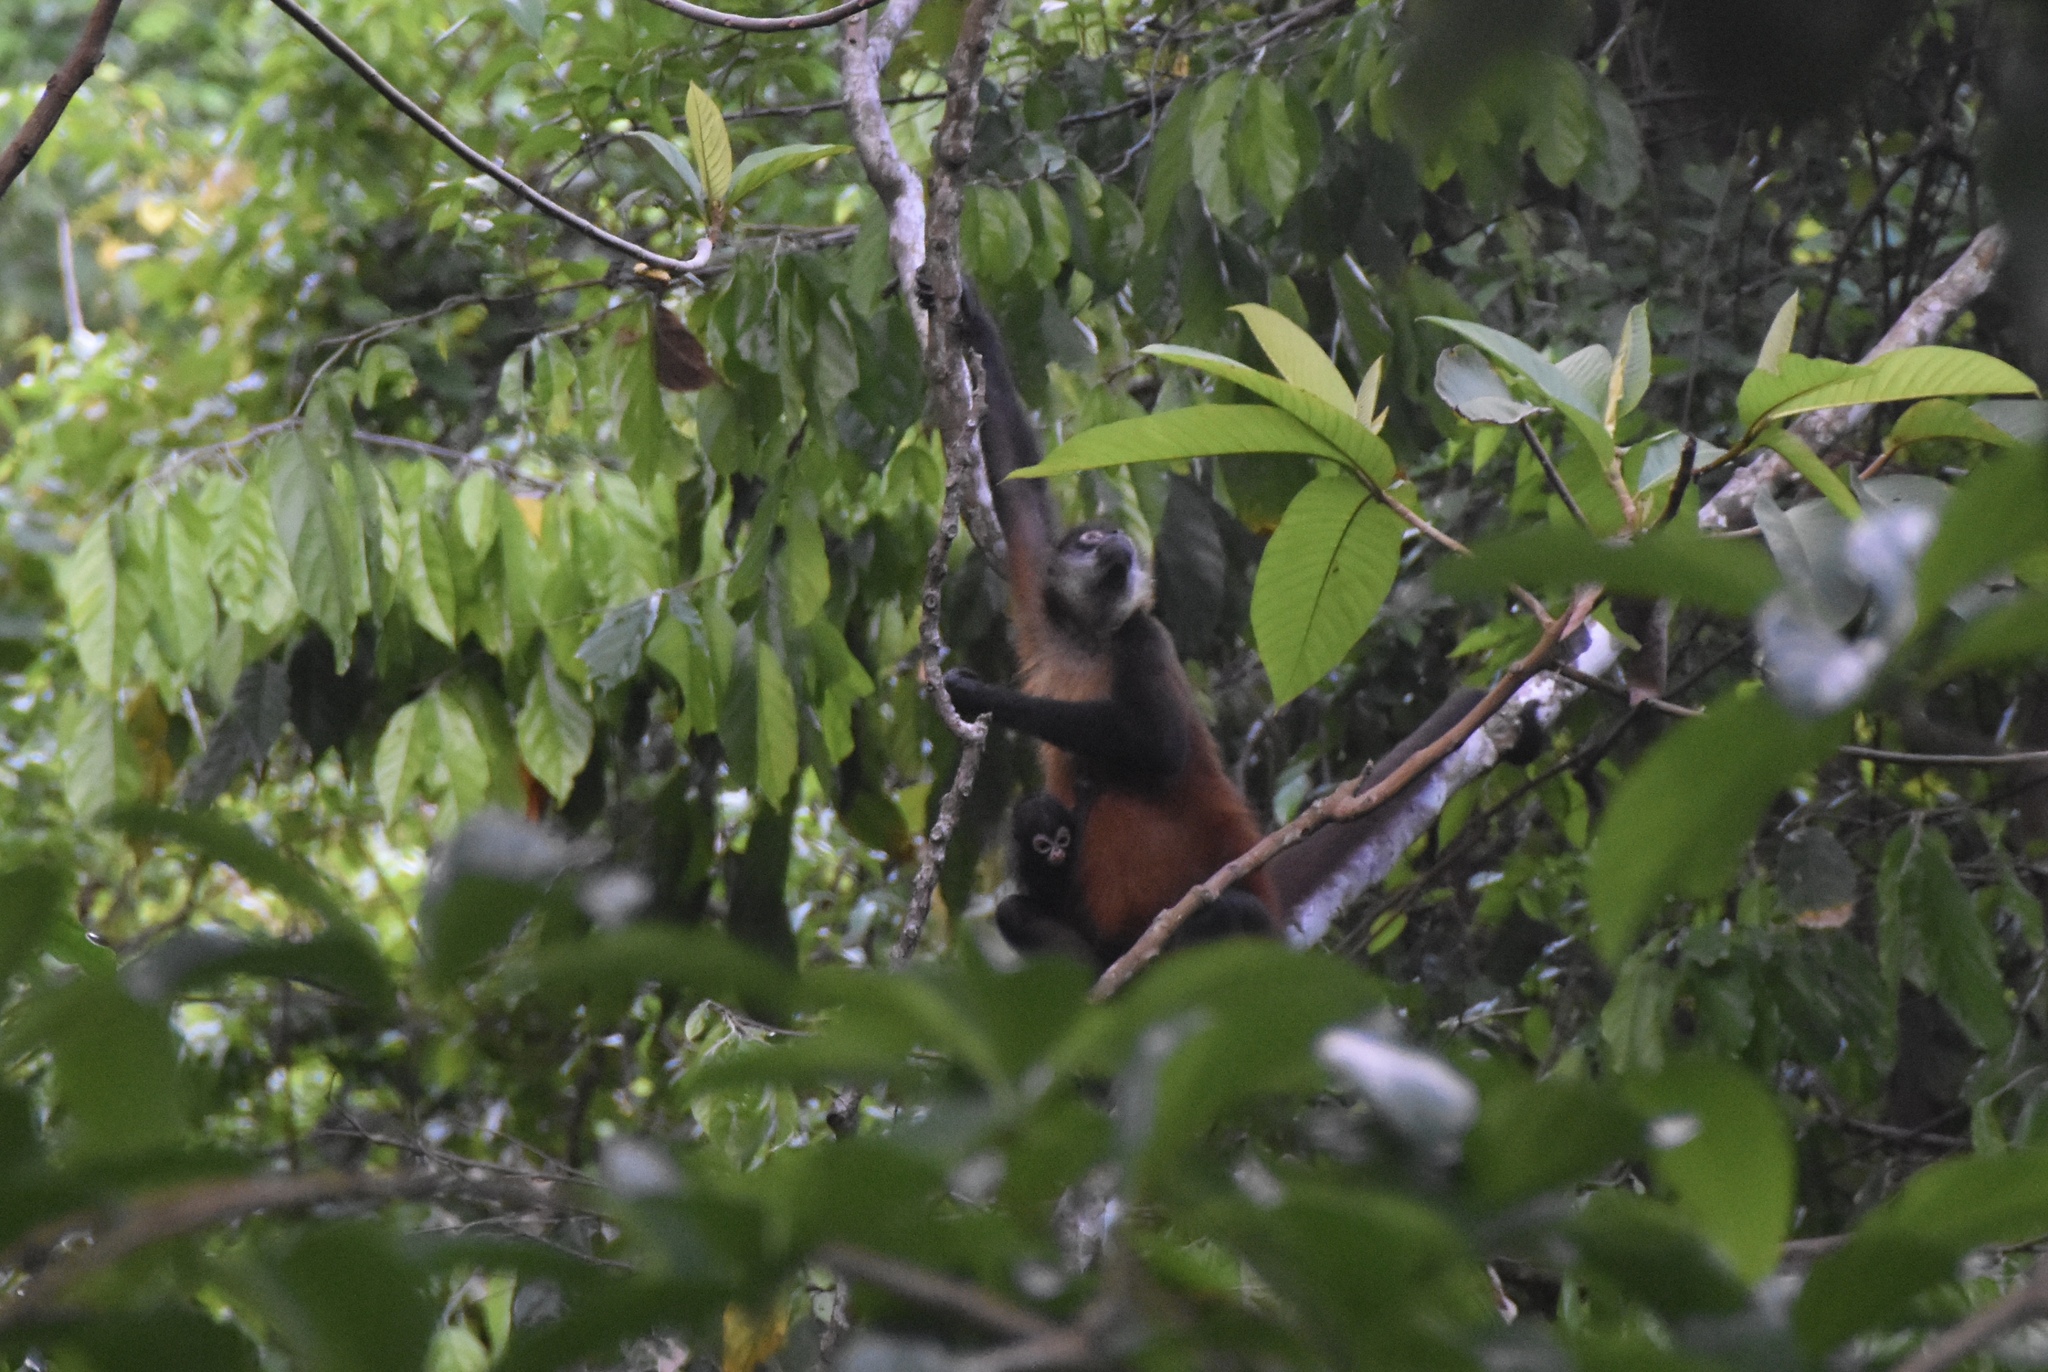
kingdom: Animalia
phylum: Chordata
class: Mammalia
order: Primates
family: Atelidae
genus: Ateles
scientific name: Ateles geoffroyi
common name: Black-handed spider monkey
